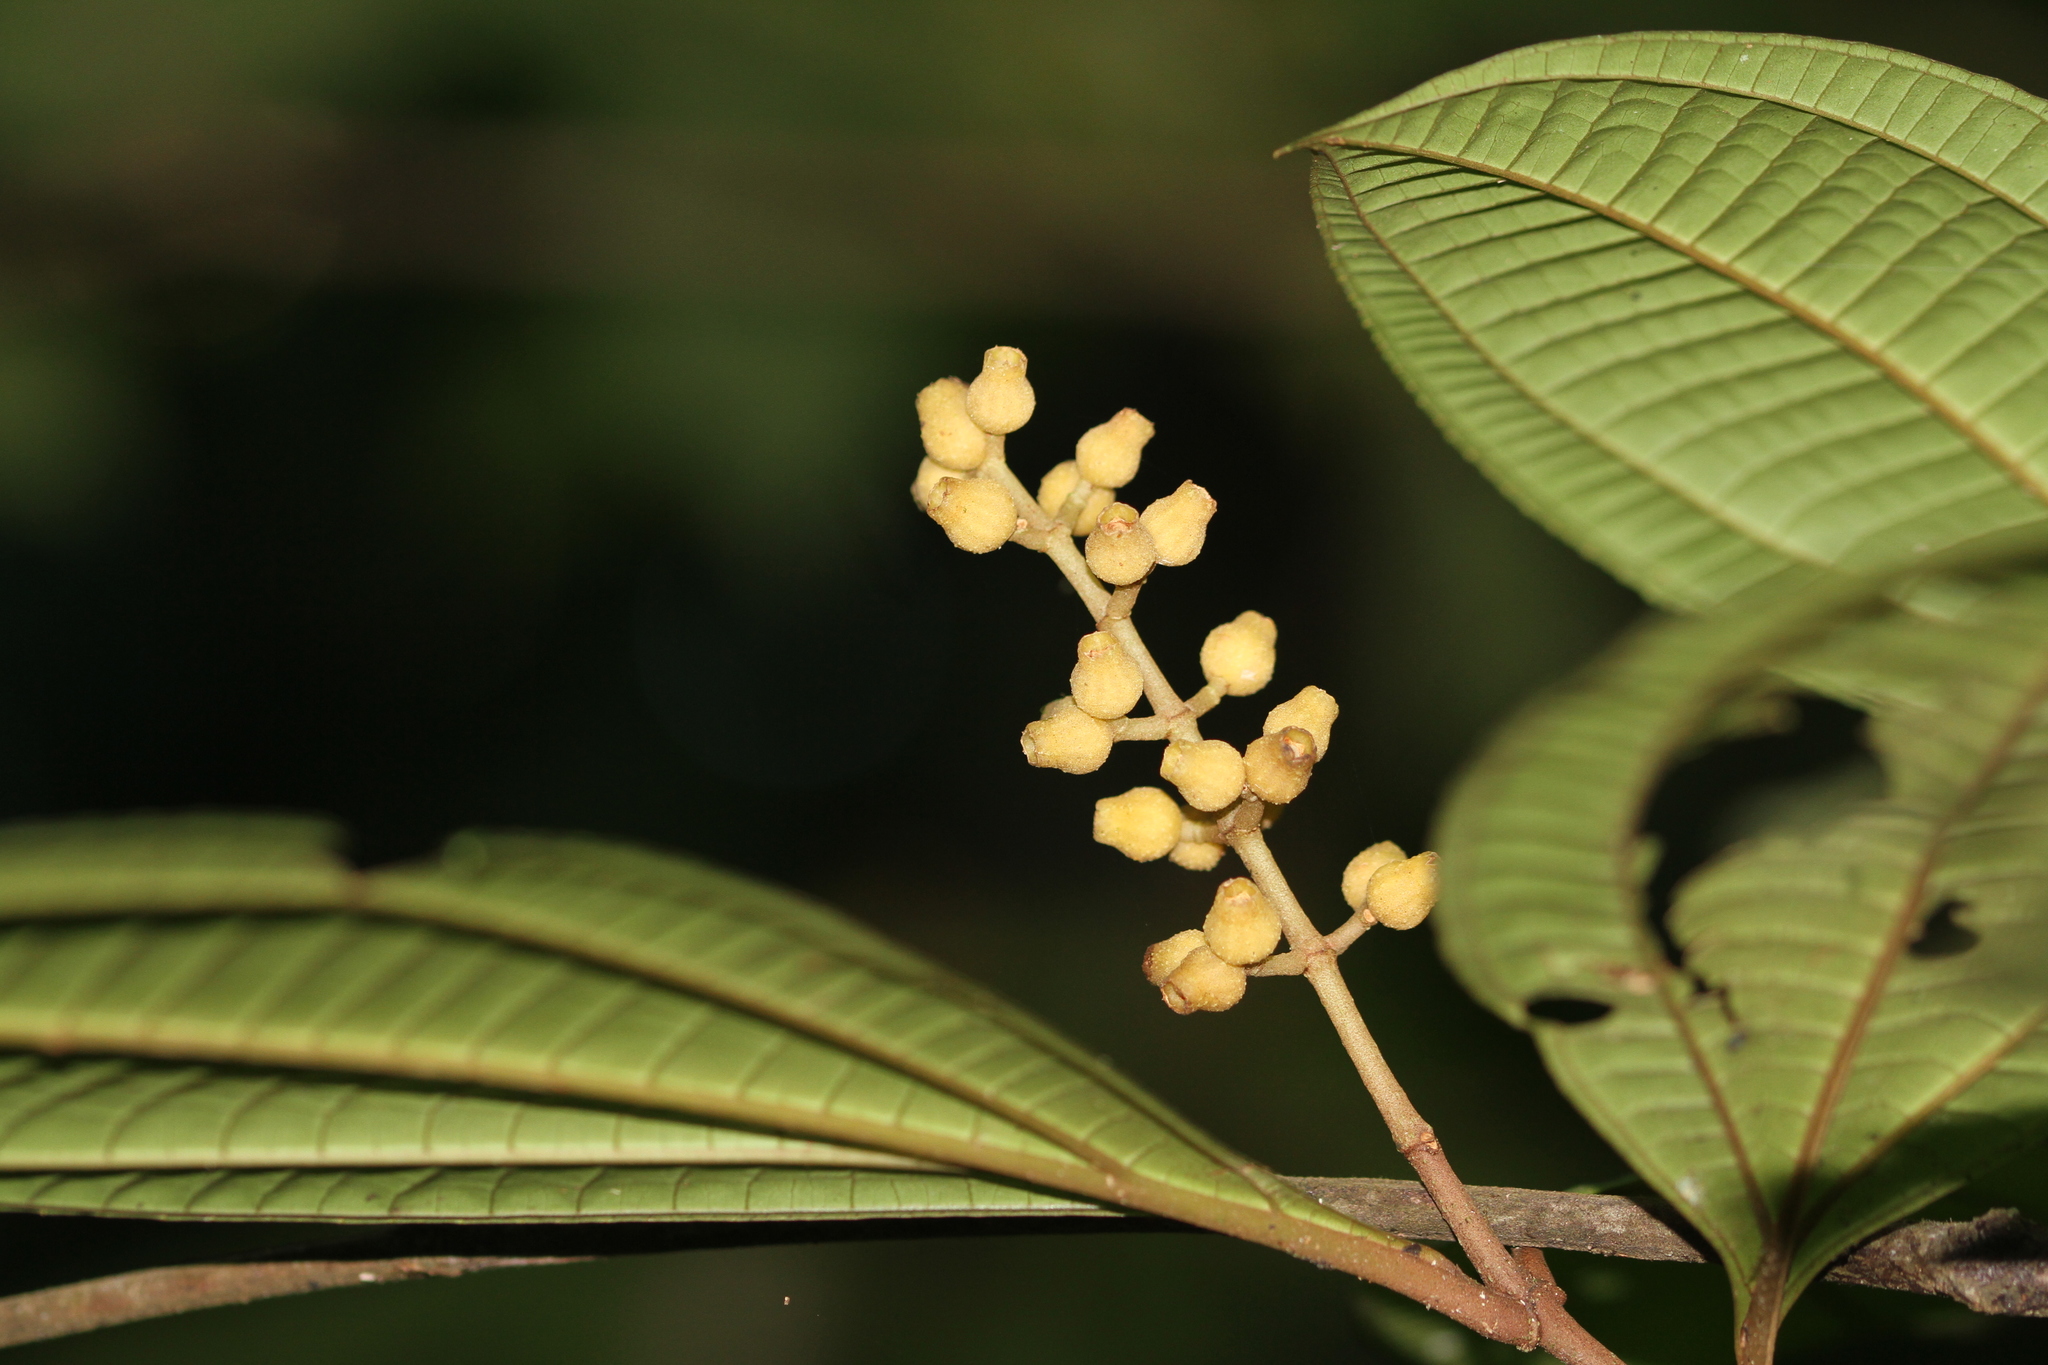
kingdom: Plantae
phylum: Tracheophyta
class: Magnoliopsida
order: Myrtales
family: Melastomataceae
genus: Miconia
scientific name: Miconia oldemanii
